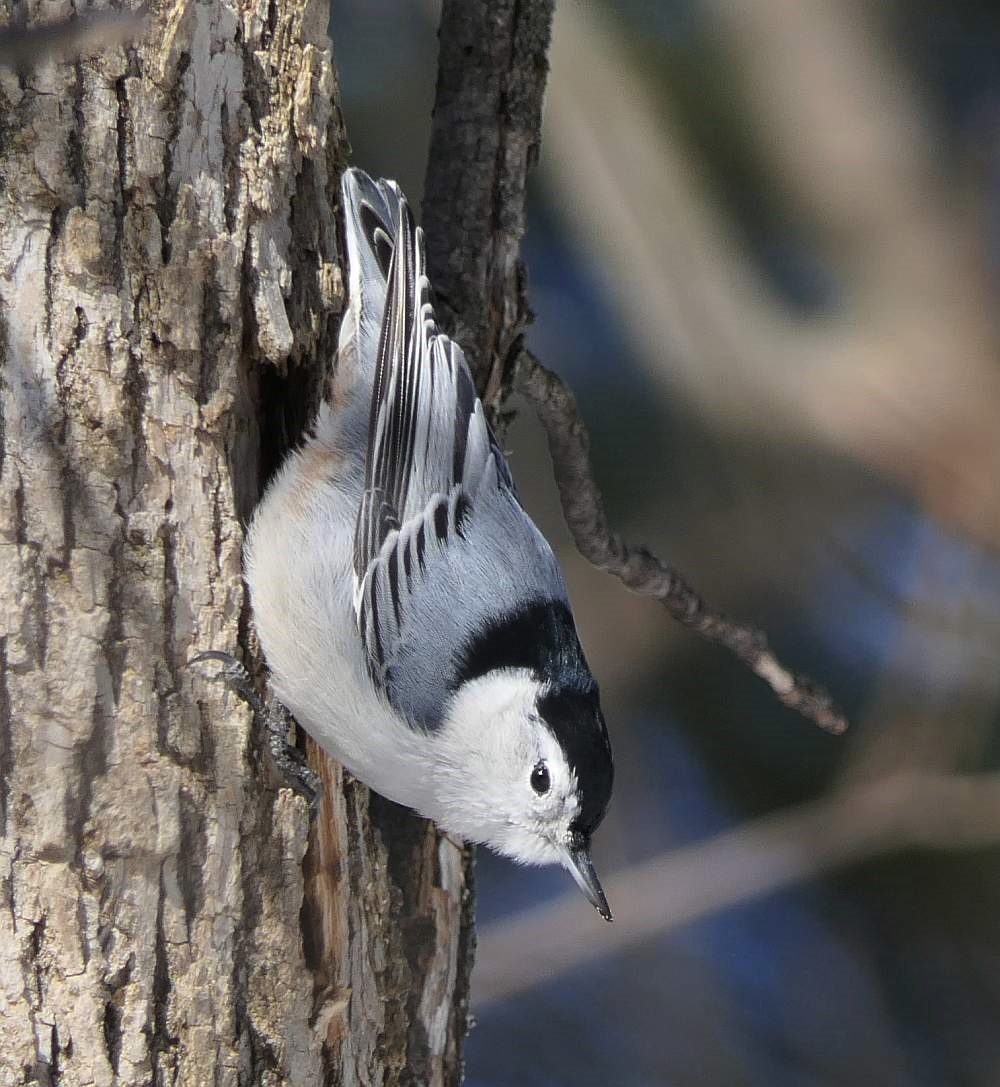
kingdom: Animalia
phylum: Chordata
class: Aves
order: Passeriformes
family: Sittidae
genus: Sitta
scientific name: Sitta carolinensis
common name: White-breasted nuthatch
